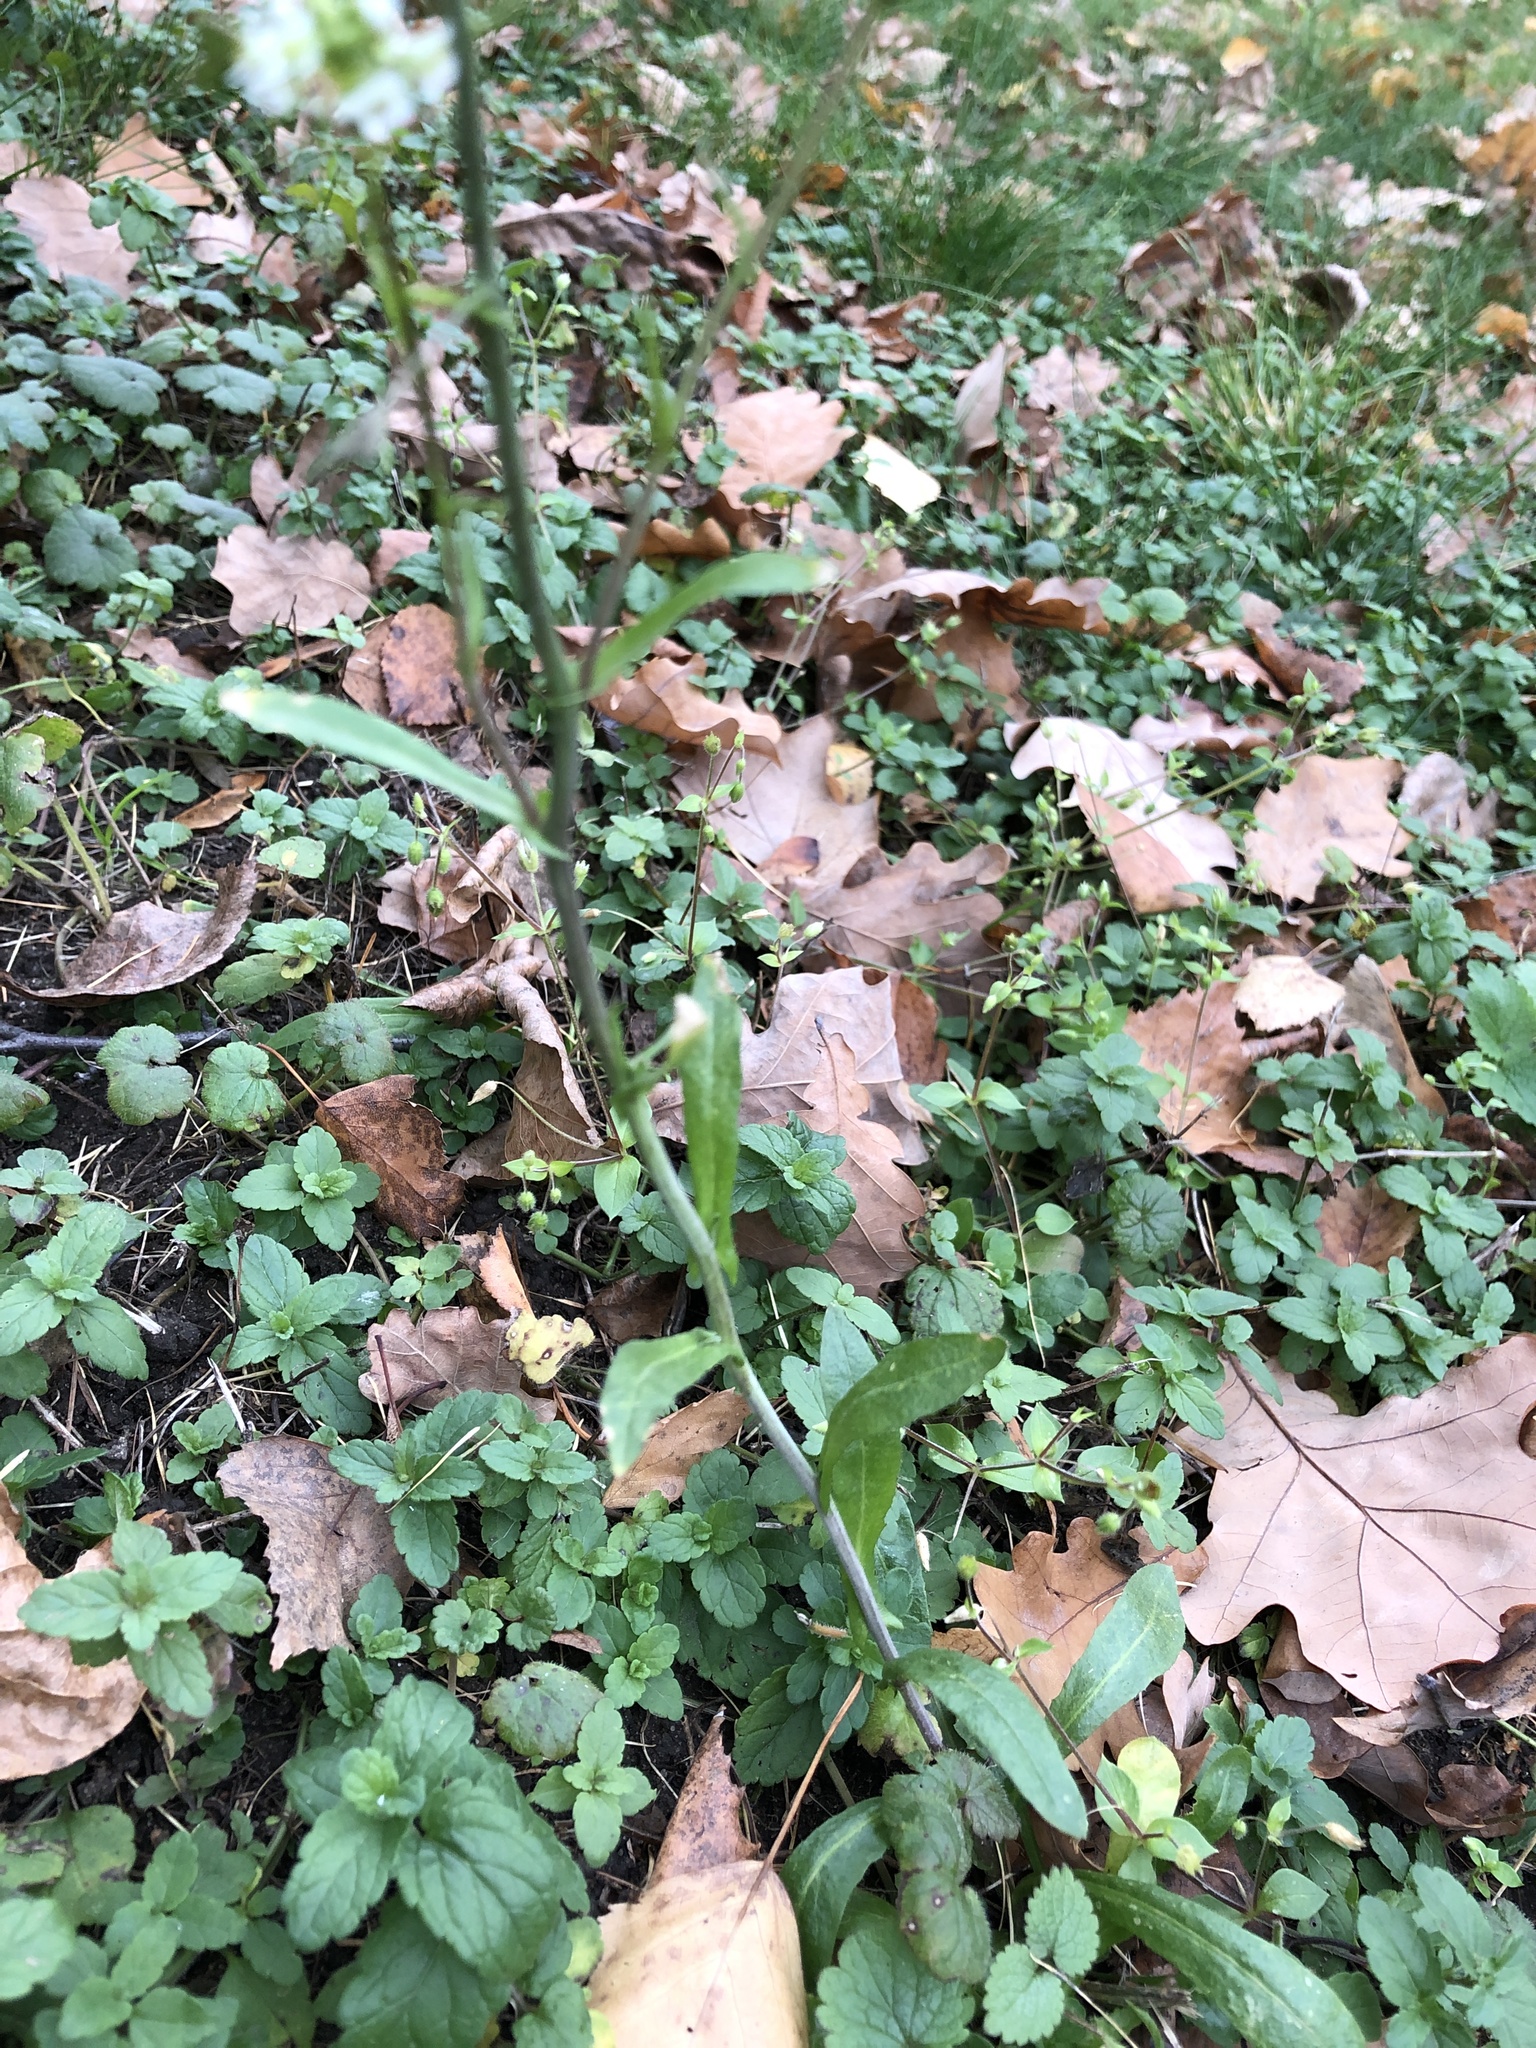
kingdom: Plantae
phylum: Tracheophyta
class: Magnoliopsida
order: Brassicales
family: Brassicaceae
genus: Capsella
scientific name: Capsella bursa-pastoris
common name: Shepherd's purse
